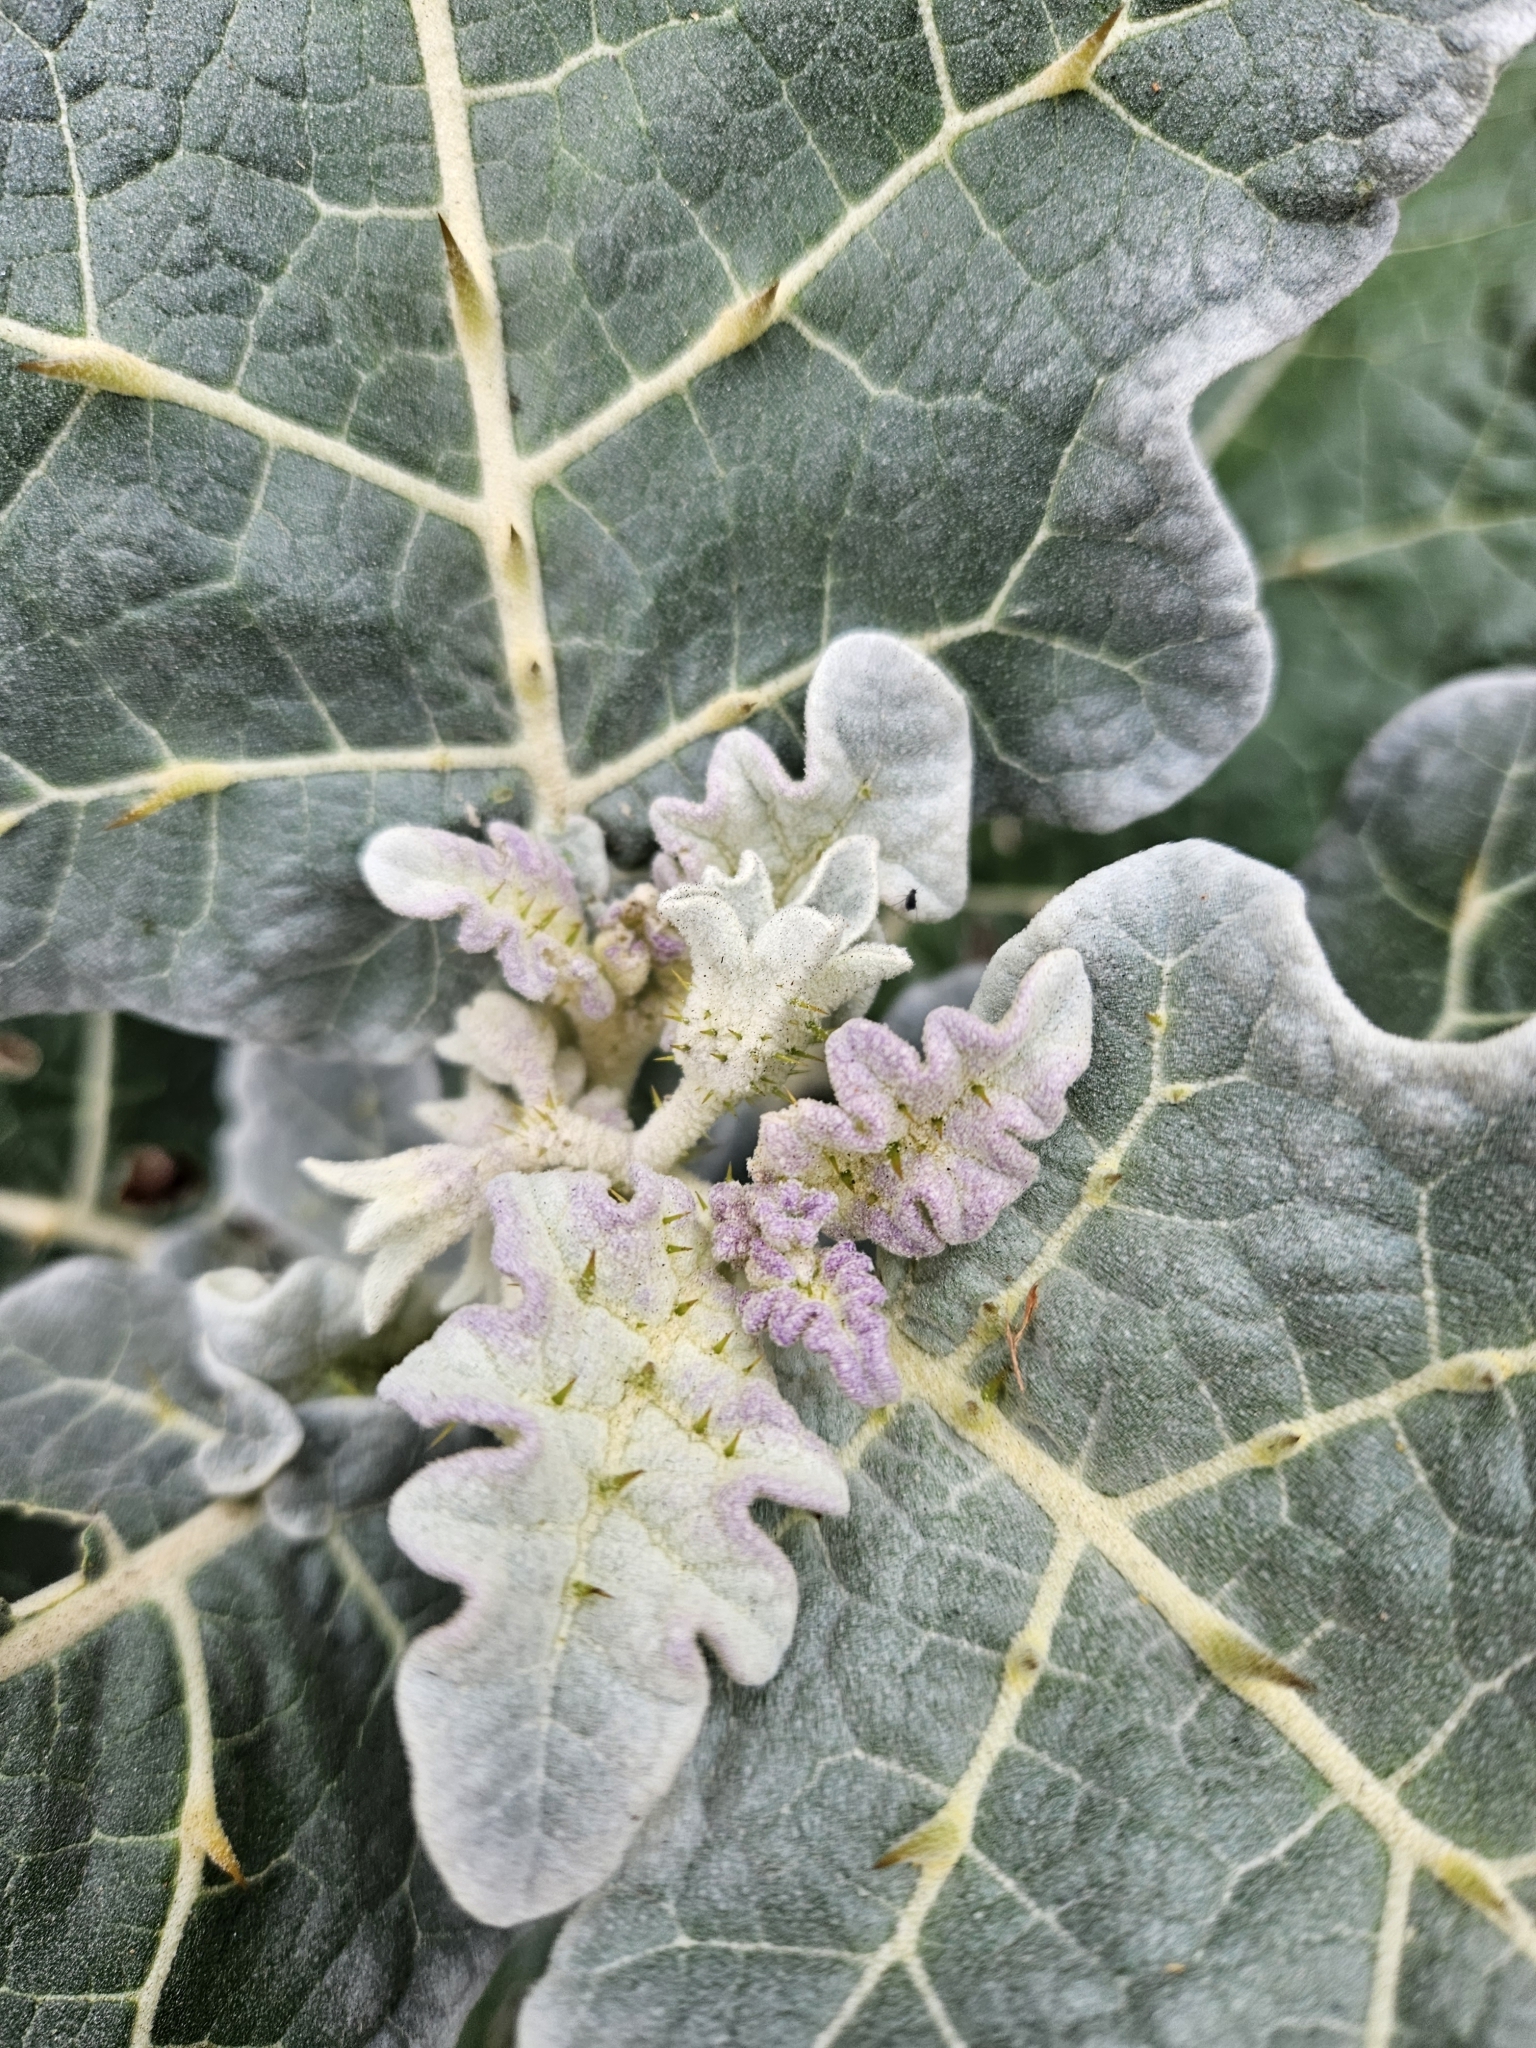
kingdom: Plantae
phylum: Tracheophyta
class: Magnoliopsida
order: Solanales
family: Solanaceae
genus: Solanum
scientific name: Solanum marginatum
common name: Purple african nightshade
